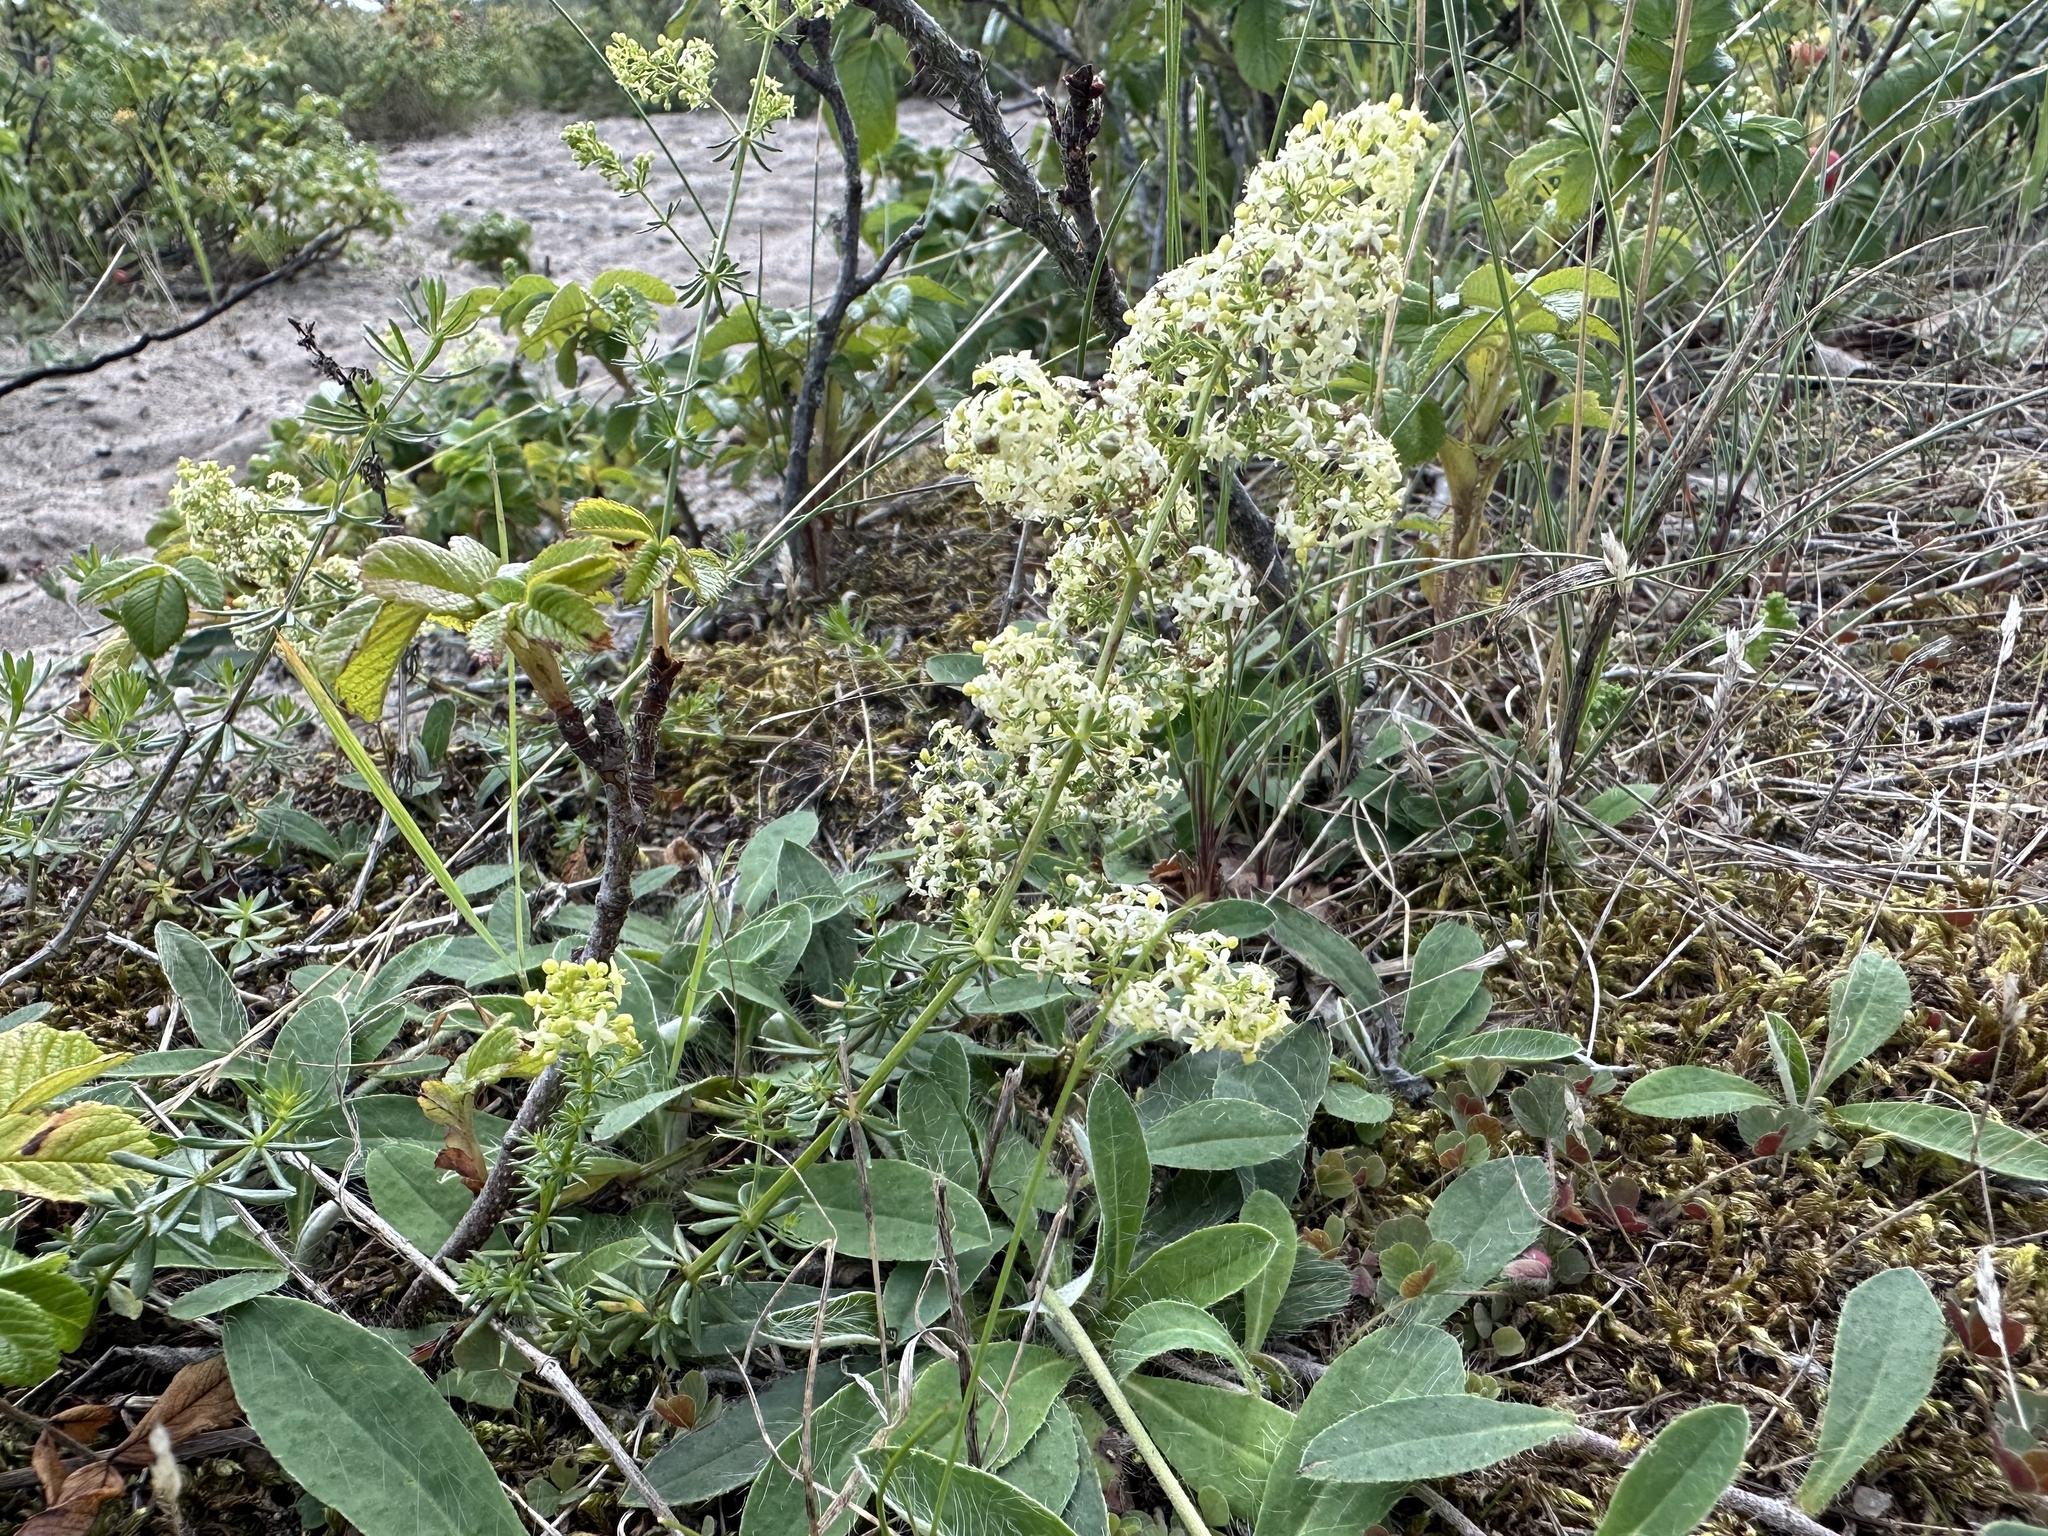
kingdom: Plantae
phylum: Tracheophyta
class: Magnoliopsida
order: Gentianales
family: Rubiaceae
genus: Galium
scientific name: Galium album
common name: White bedstraw
